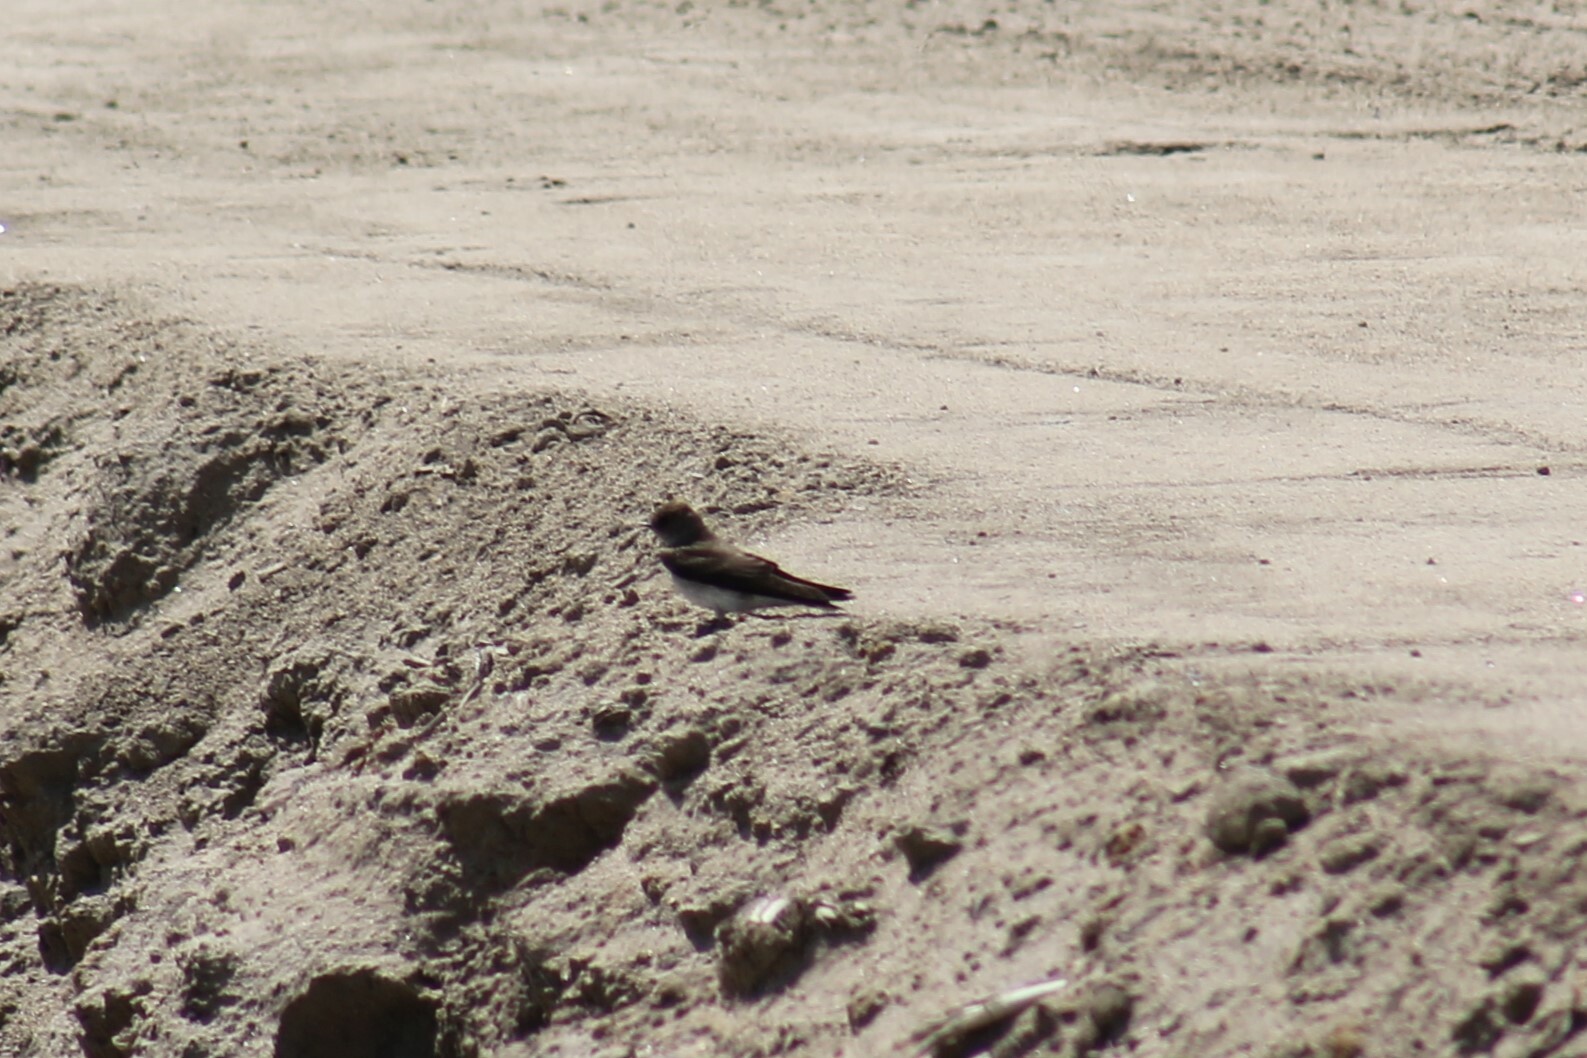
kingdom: Animalia
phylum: Chordata
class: Aves
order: Passeriformes
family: Hirundinidae
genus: Stelgidopteryx
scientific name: Stelgidopteryx serripennis
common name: Northern rough-winged swallow
